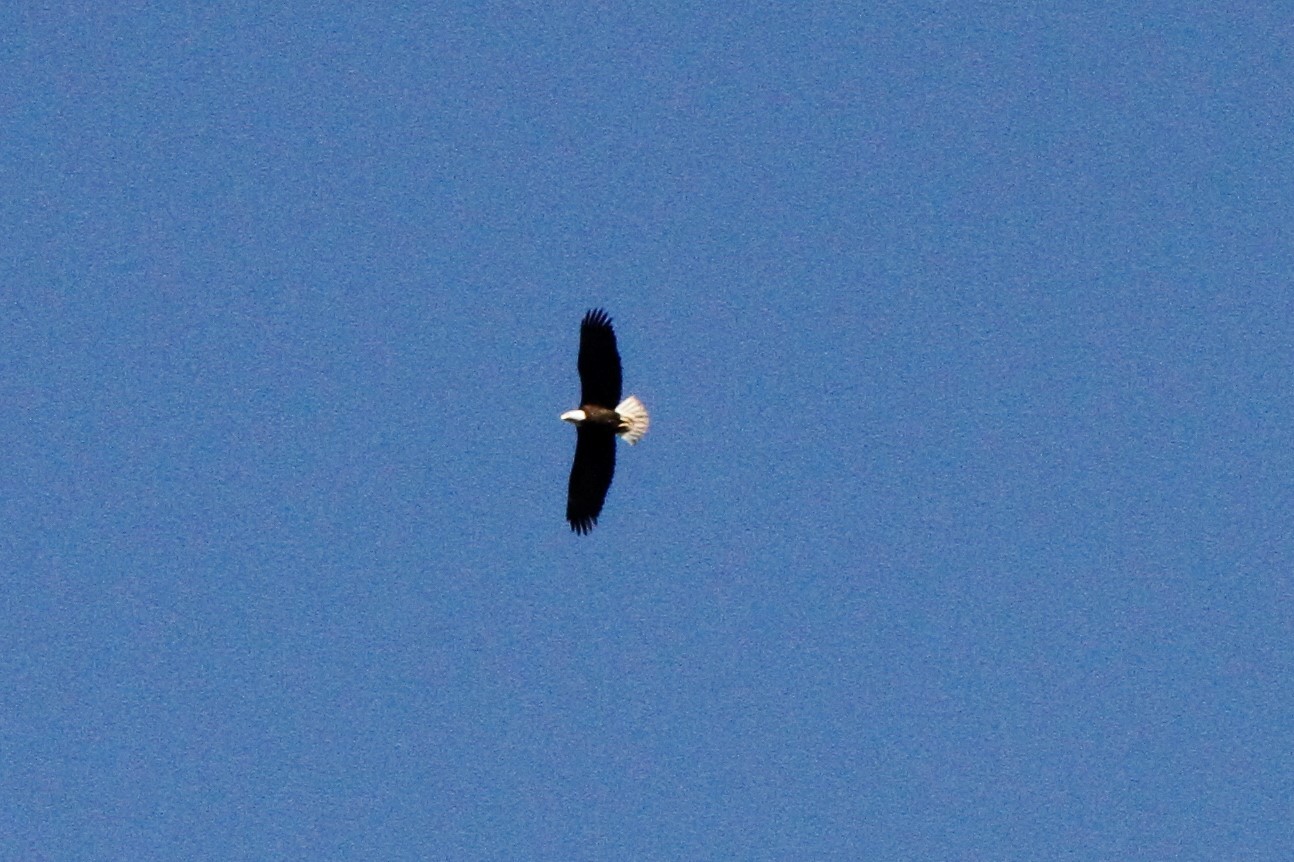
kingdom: Animalia
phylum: Chordata
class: Aves
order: Accipitriformes
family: Accipitridae
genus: Haliaeetus
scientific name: Haliaeetus leucocephalus
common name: Bald eagle
